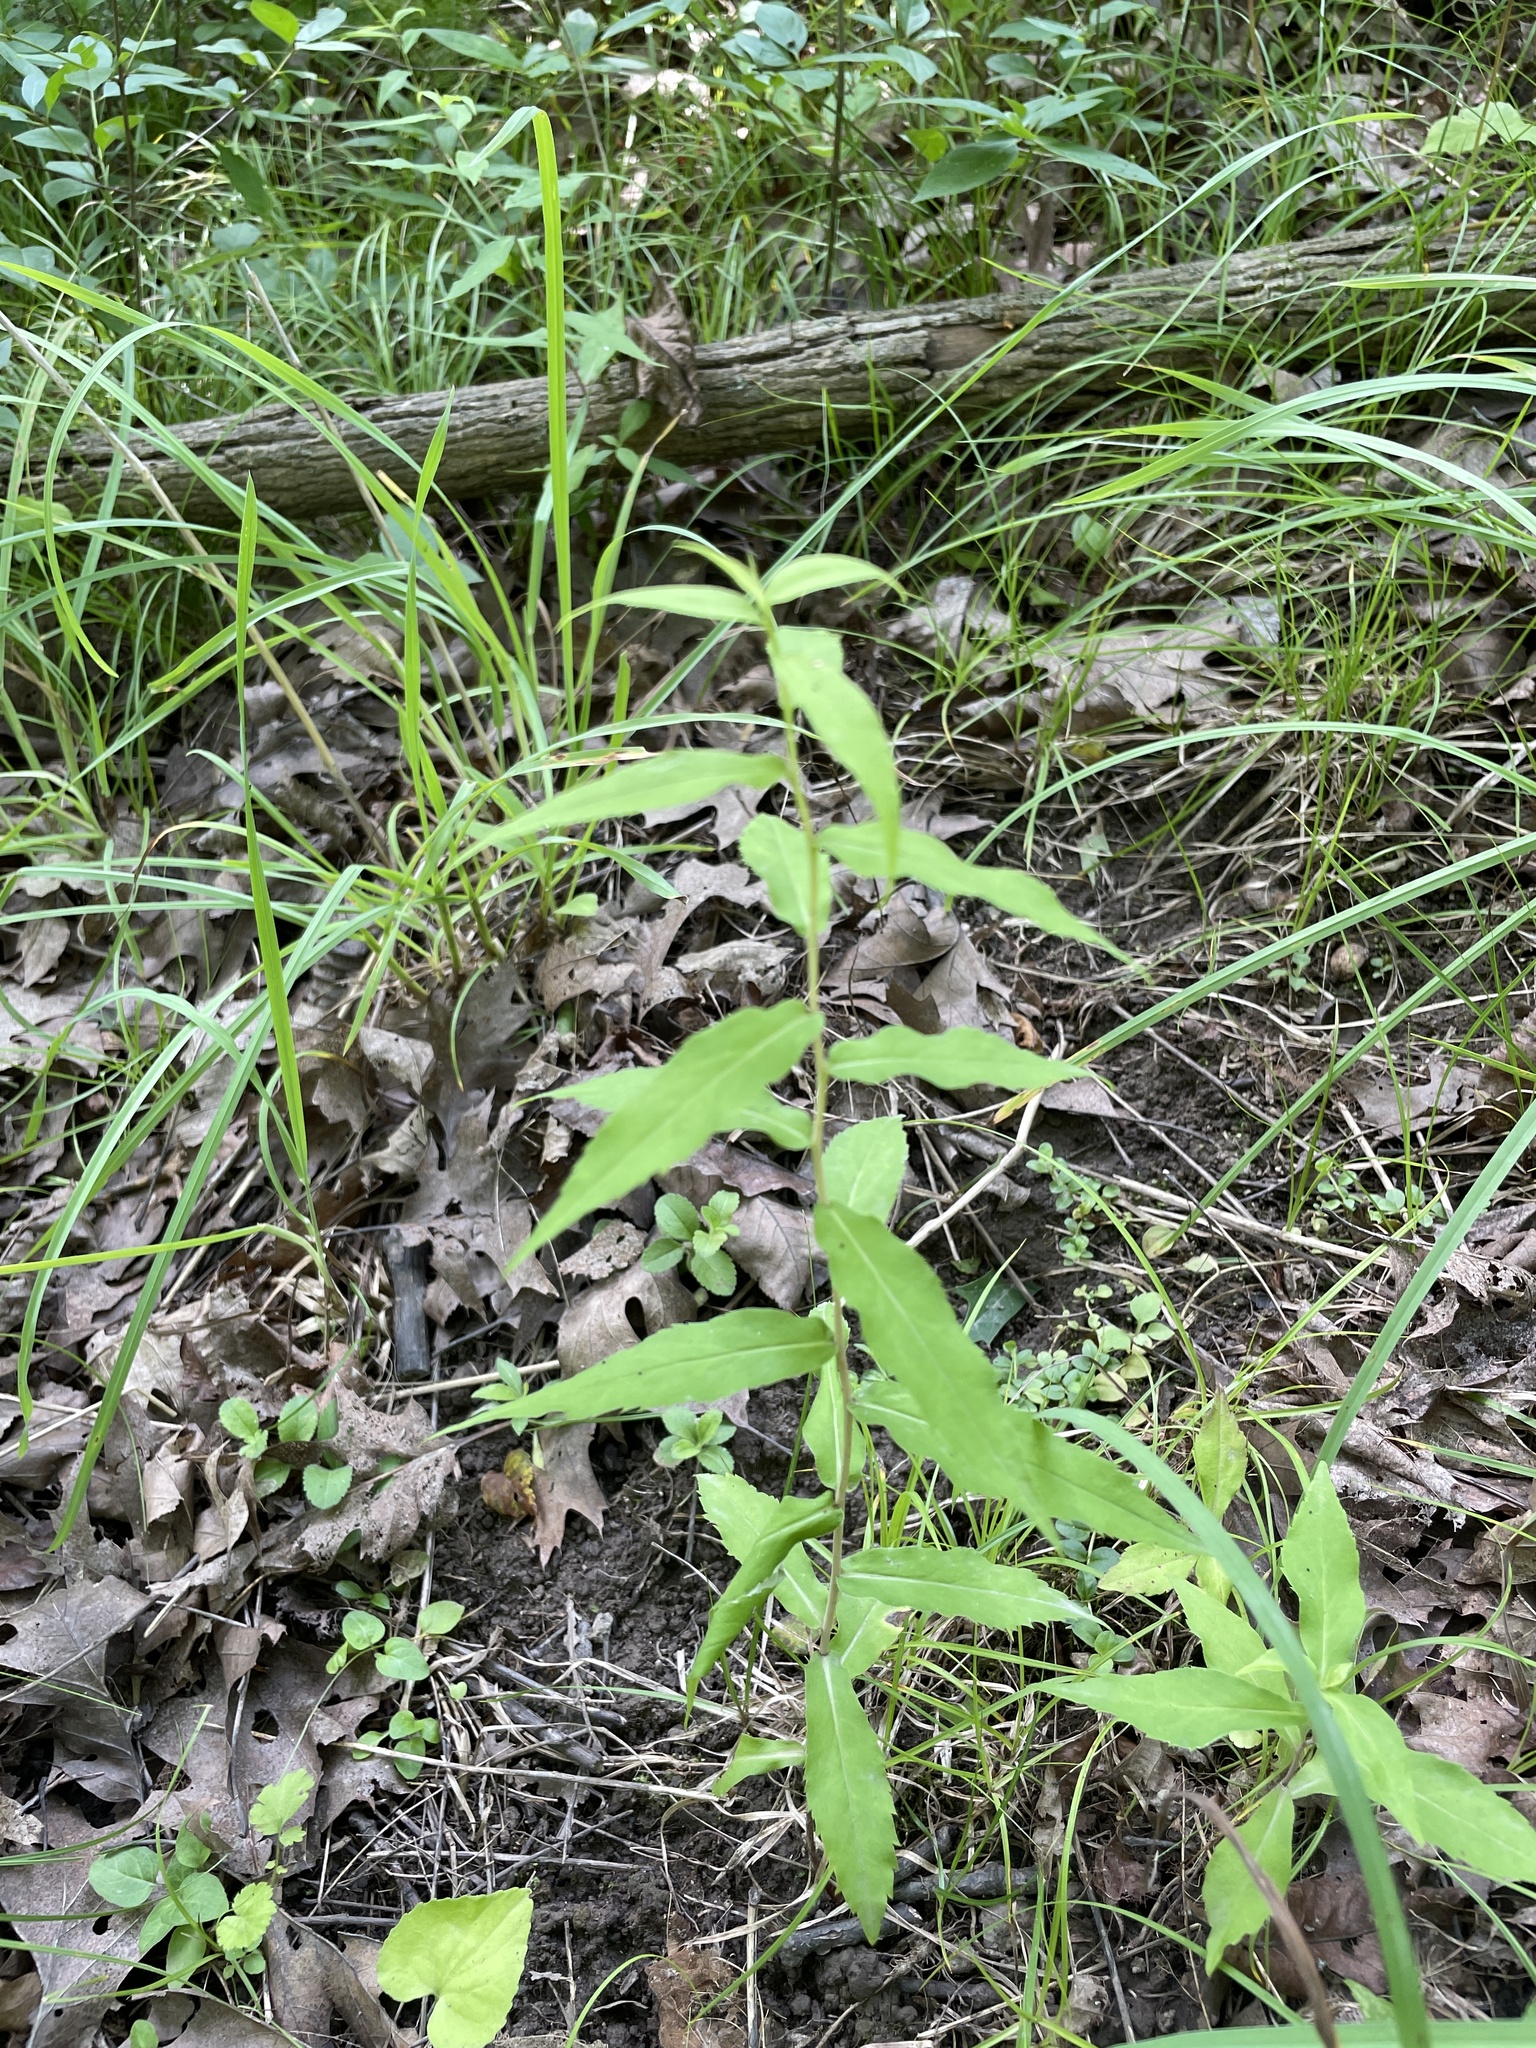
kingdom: Plantae
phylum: Tracheophyta
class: Magnoliopsida
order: Asterales
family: Asteraceae
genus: Solidago
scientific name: Solidago caesia
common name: Woodland goldenrod
